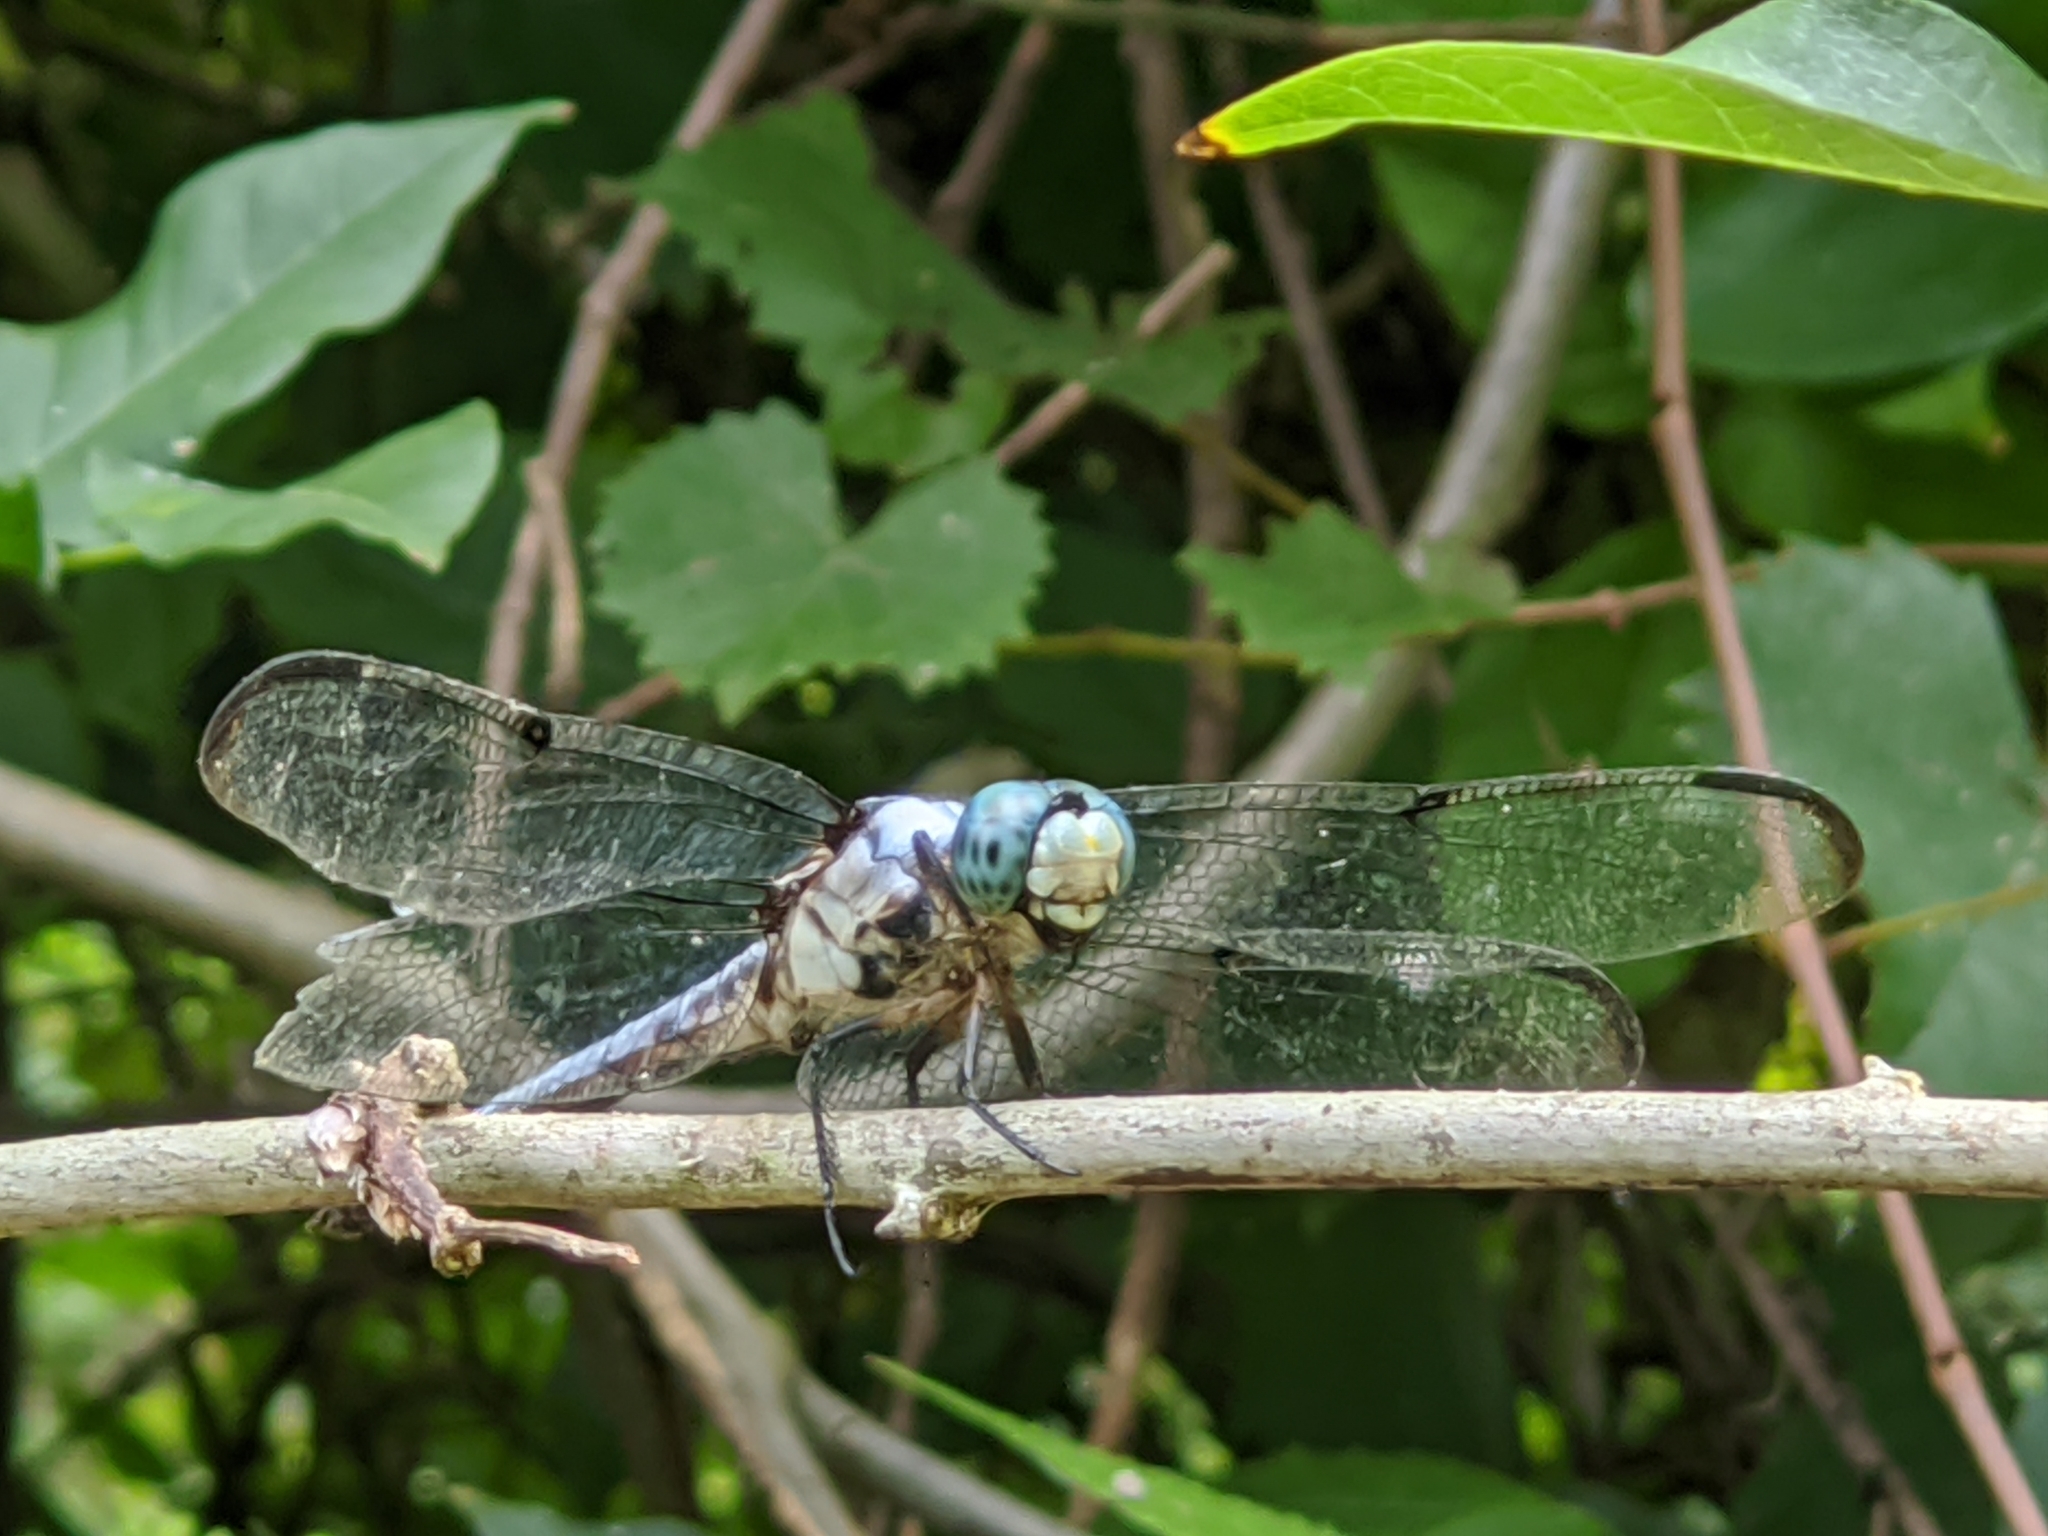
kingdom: Animalia
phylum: Arthropoda
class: Insecta
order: Odonata
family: Libellulidae
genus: Libellula
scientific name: Libellula vibrans
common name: Great blue skimmer
